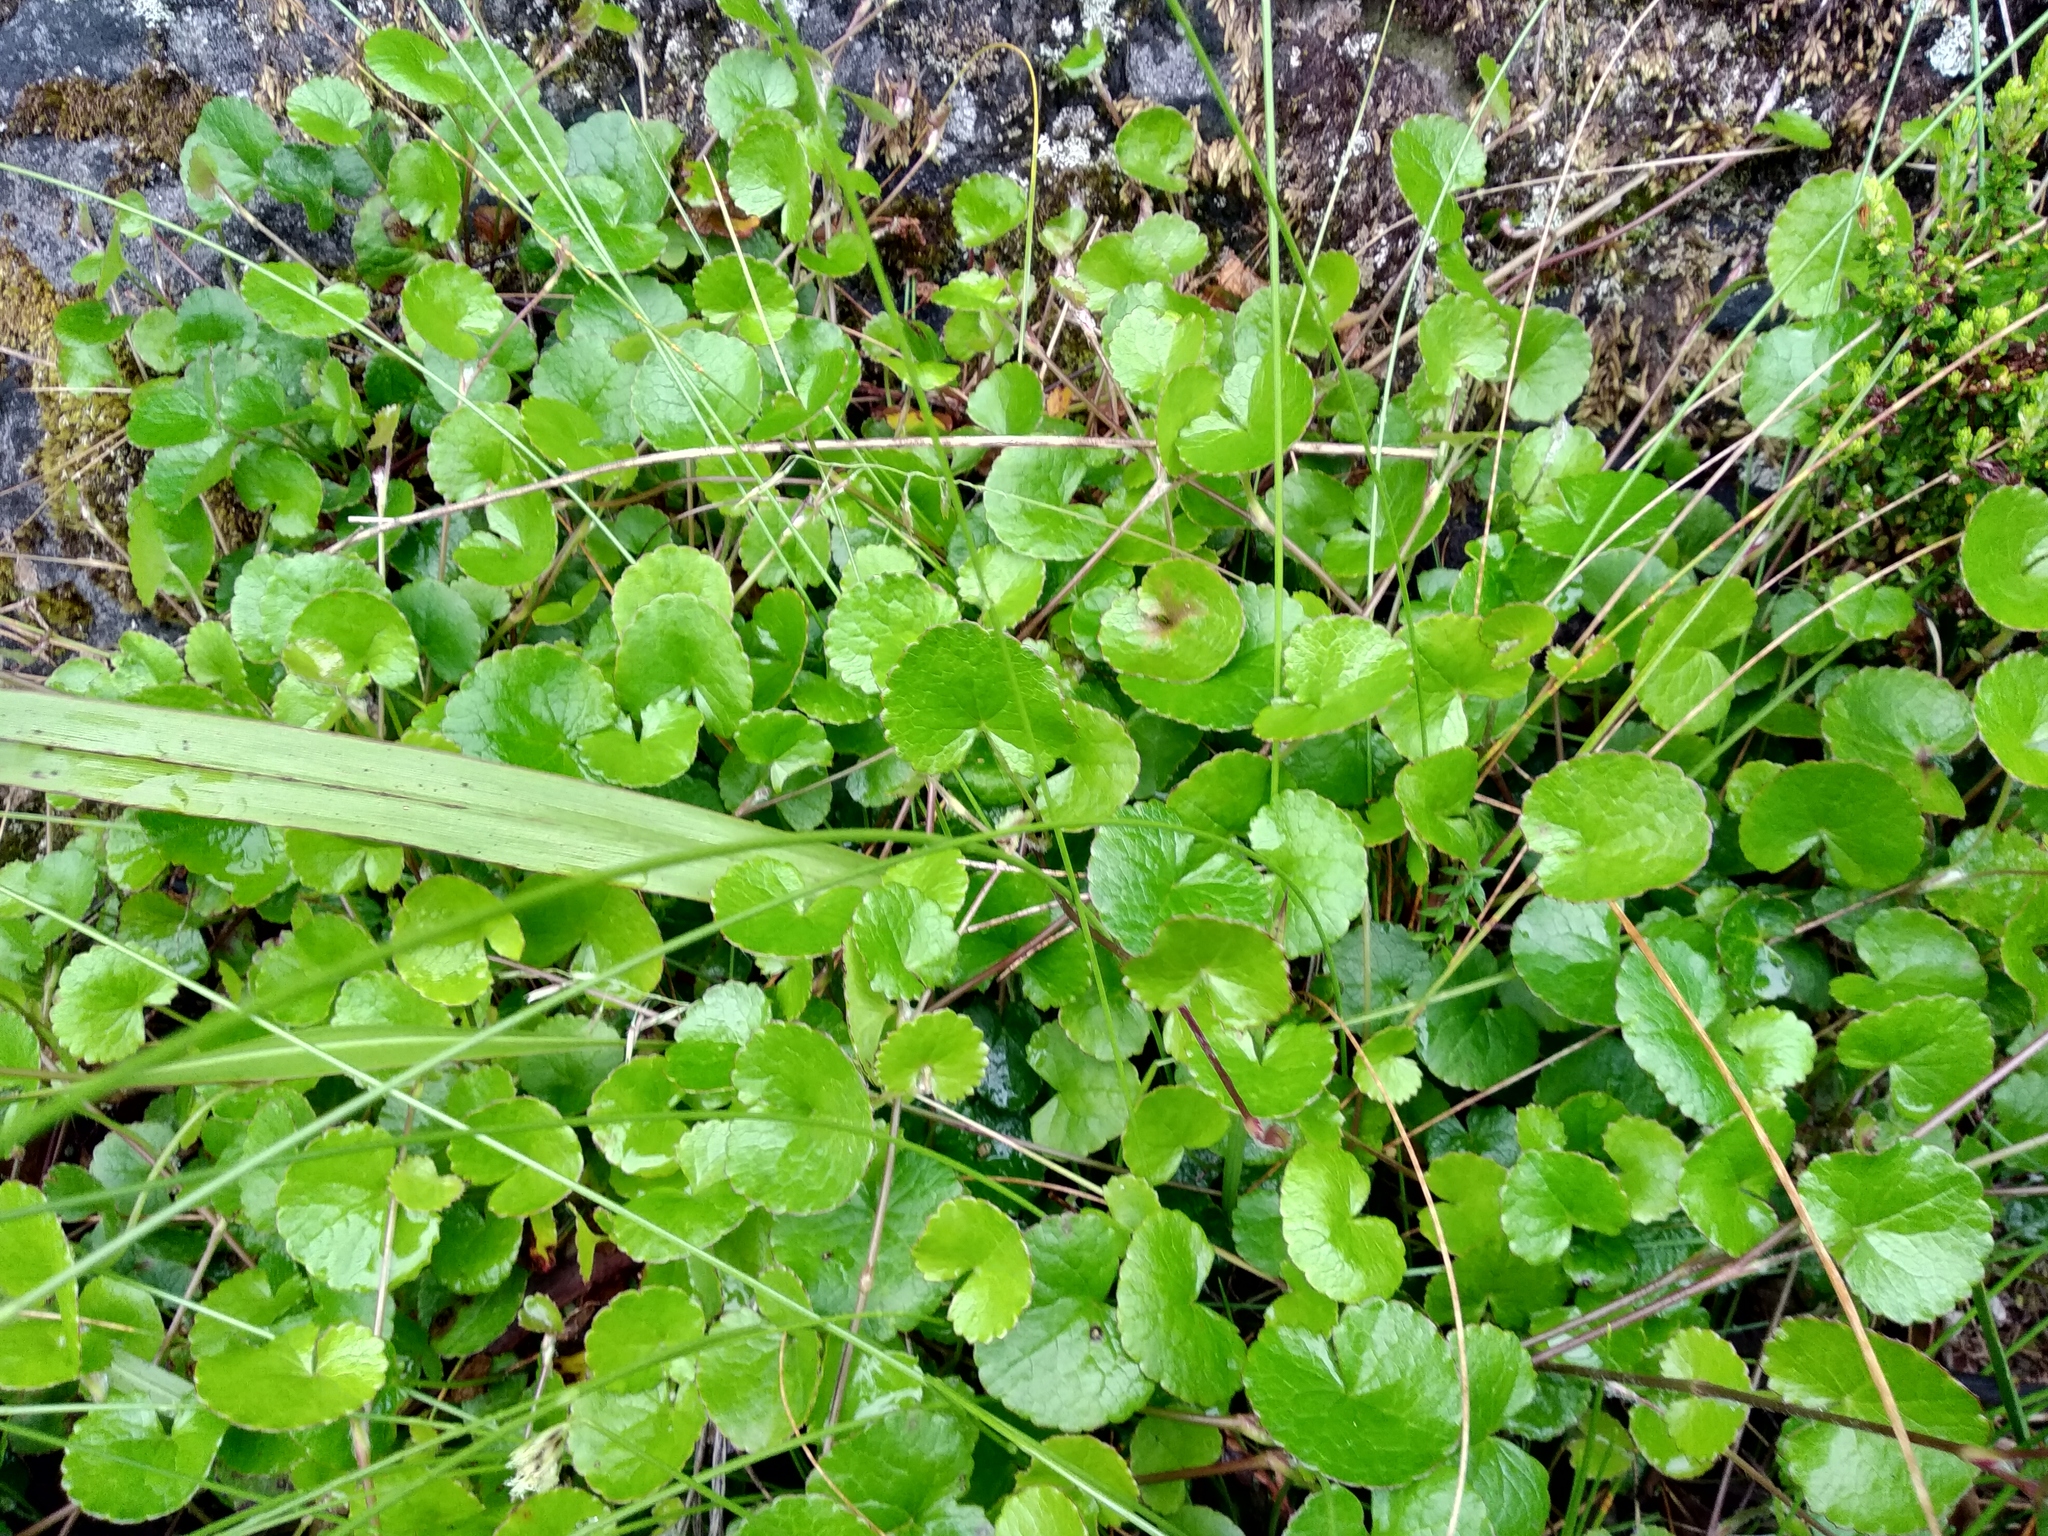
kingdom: Plantae
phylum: Tracheophyta
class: Magnoliopsida
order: Apiales
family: Apiaceae
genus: Centella
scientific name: Centella eriantha
